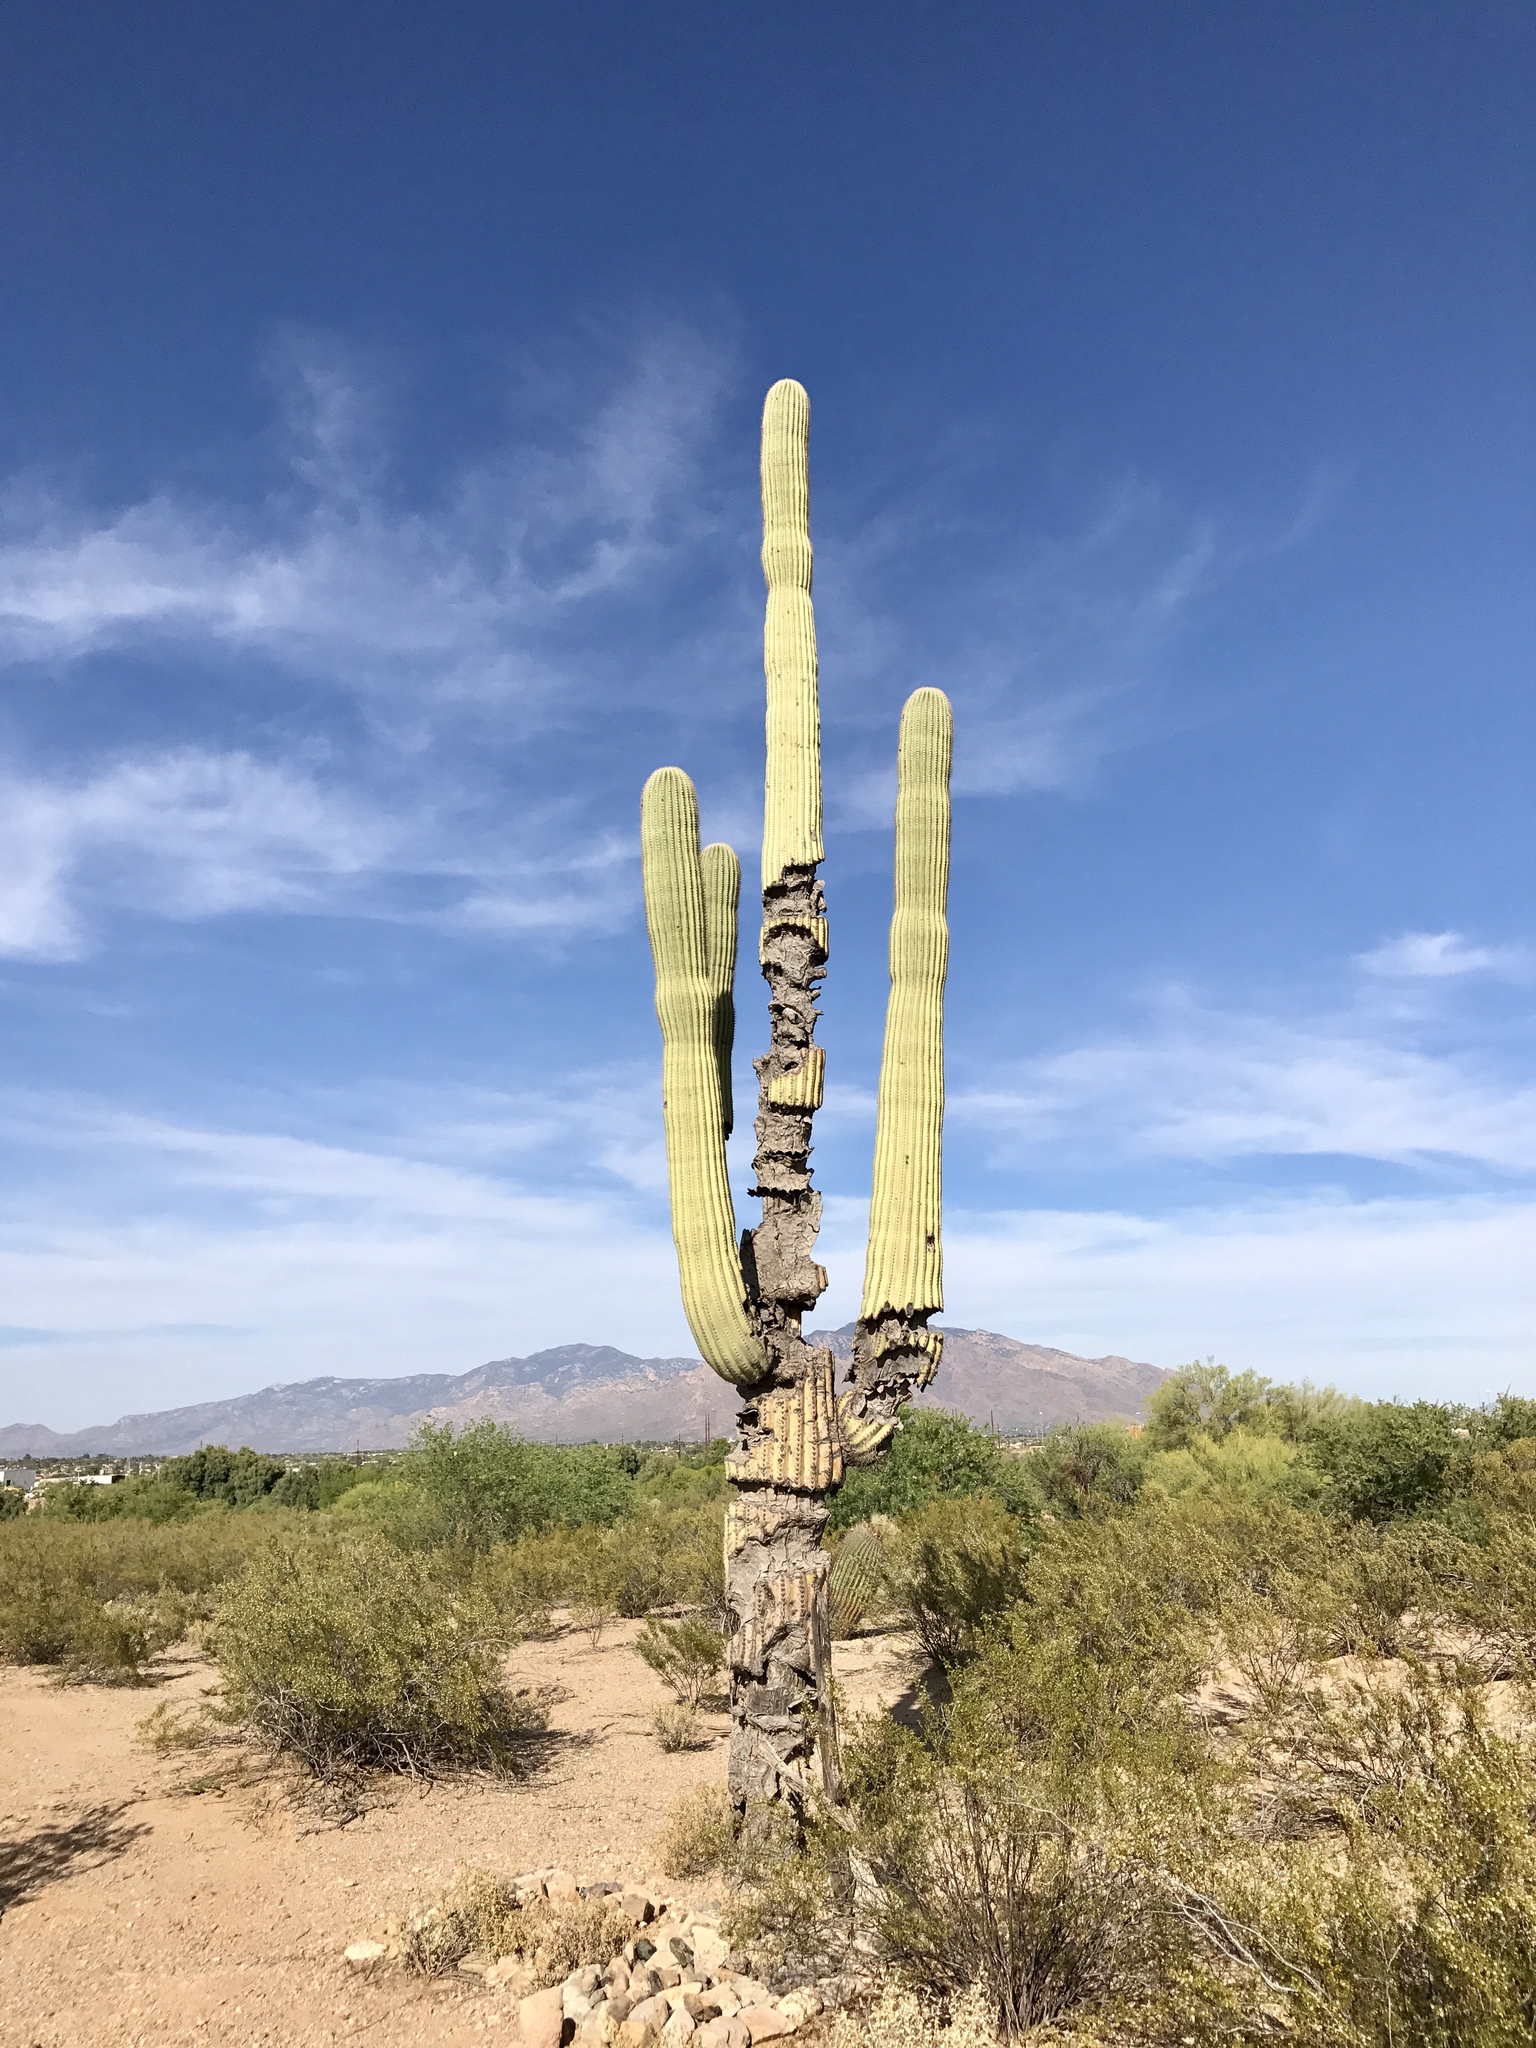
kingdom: Plantae
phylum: Tracheophyta
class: Magnoliopsida
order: Caryophyllales
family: Cactaceae
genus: Carnegiea
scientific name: Carnegiea gigantea
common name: Saguaro
